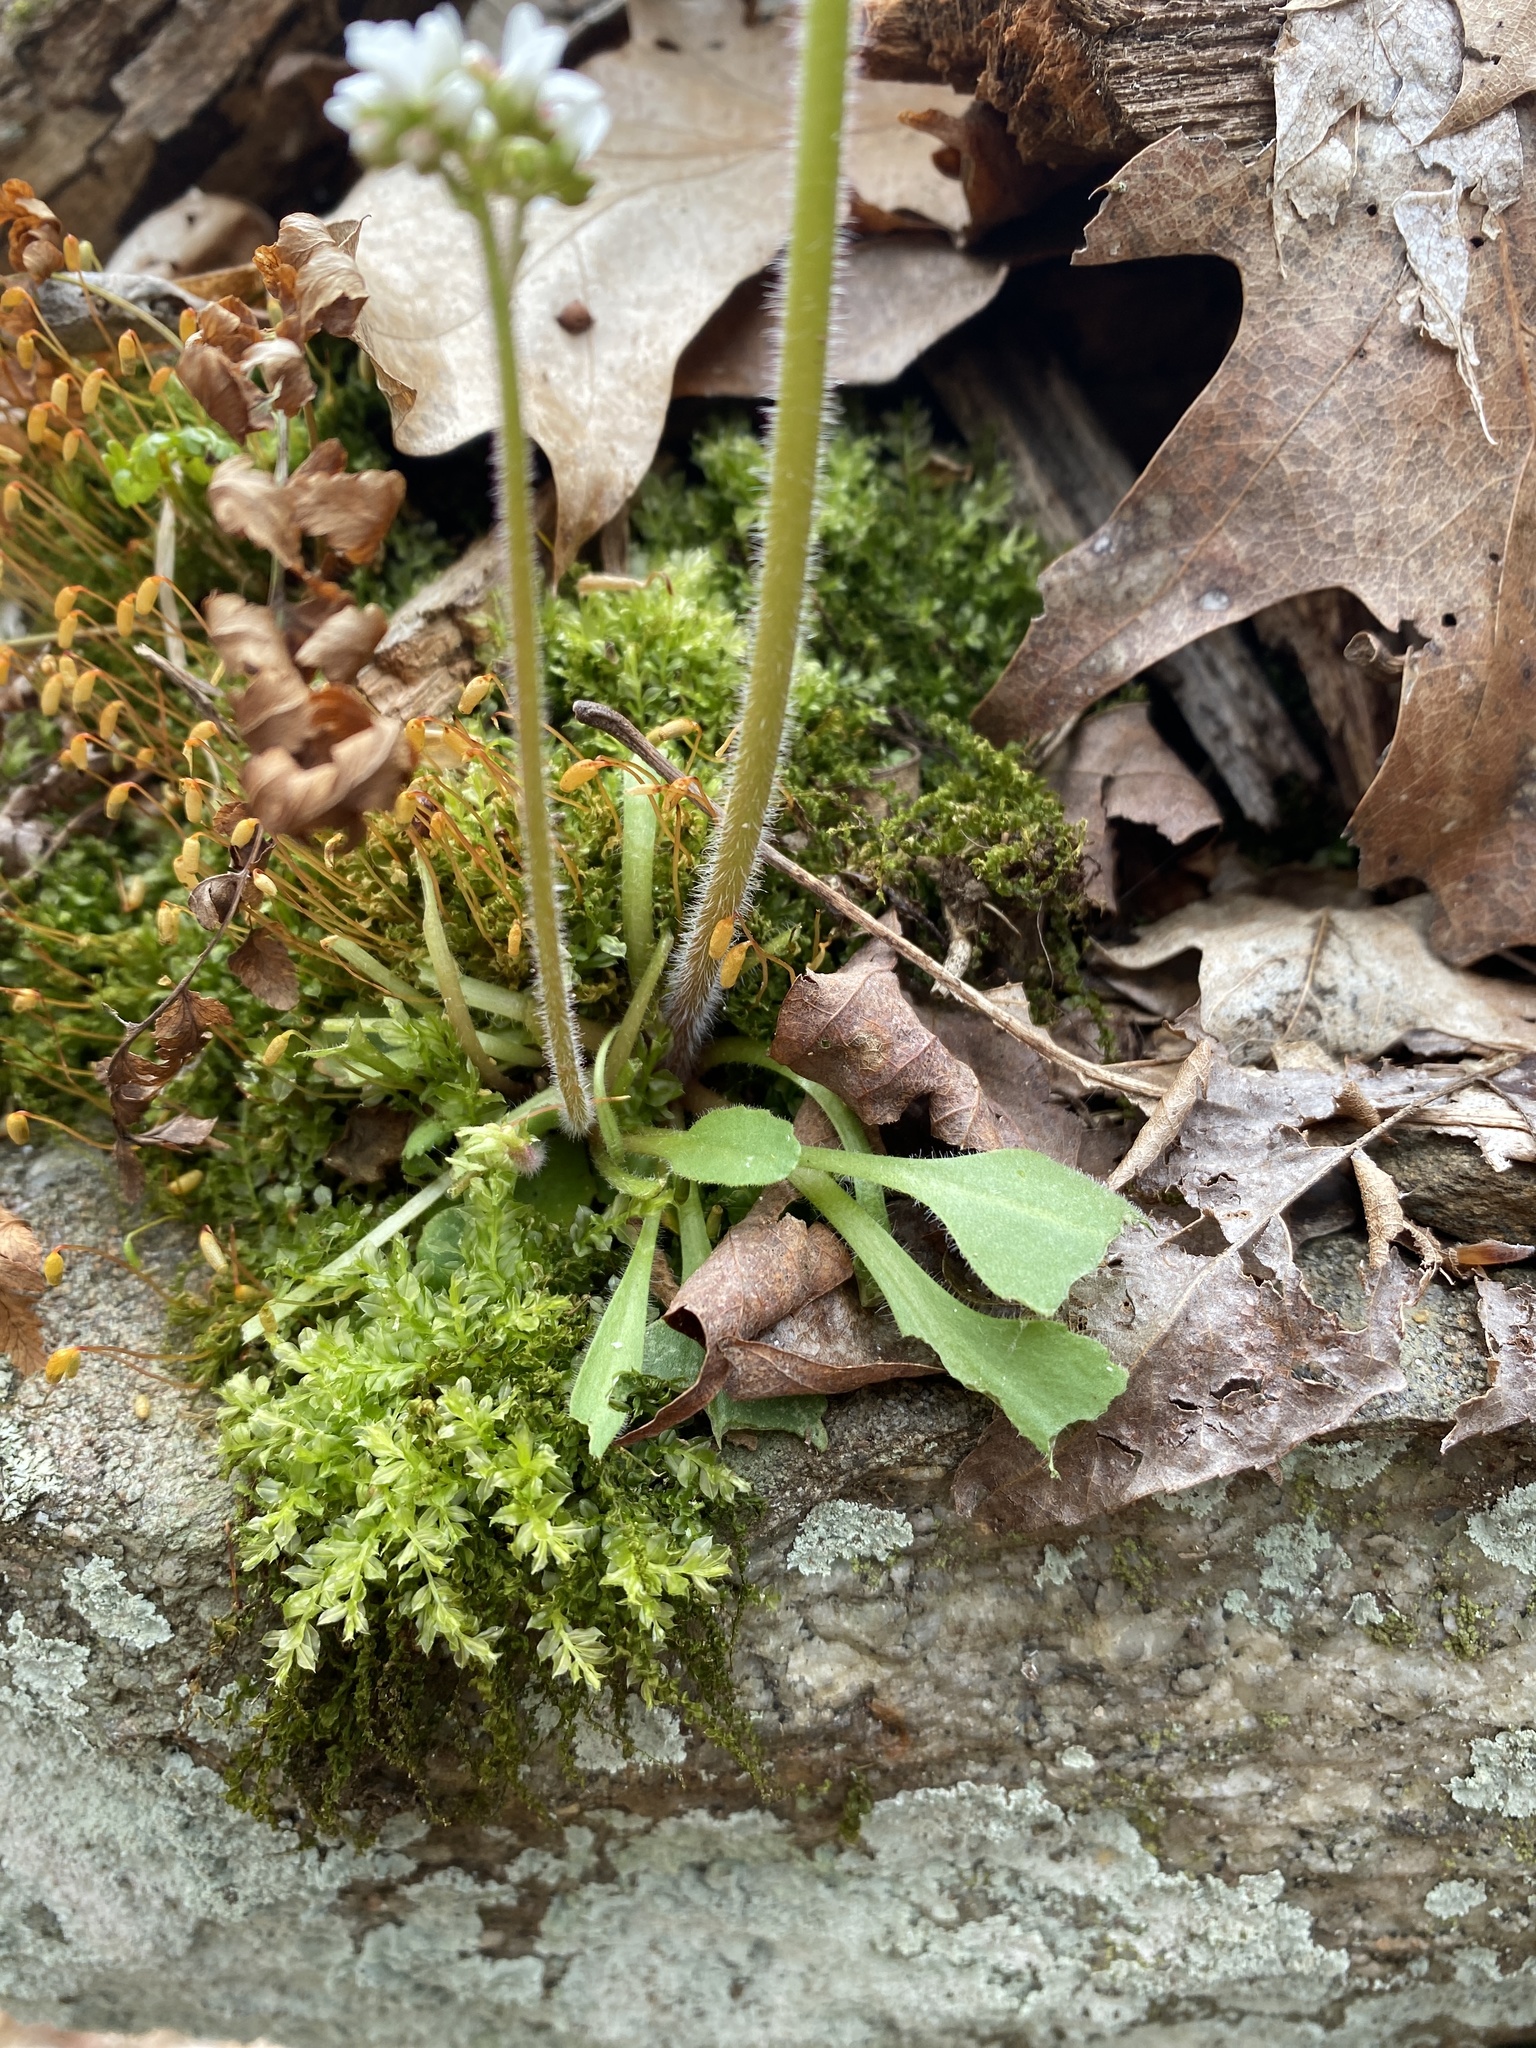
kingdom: Plantae
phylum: Tracheophyta
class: Magnoliopsida
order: Saxifragales
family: Saxifragaceae
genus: Micranthes
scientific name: Micranthes virginiensis
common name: Early saxifrage
